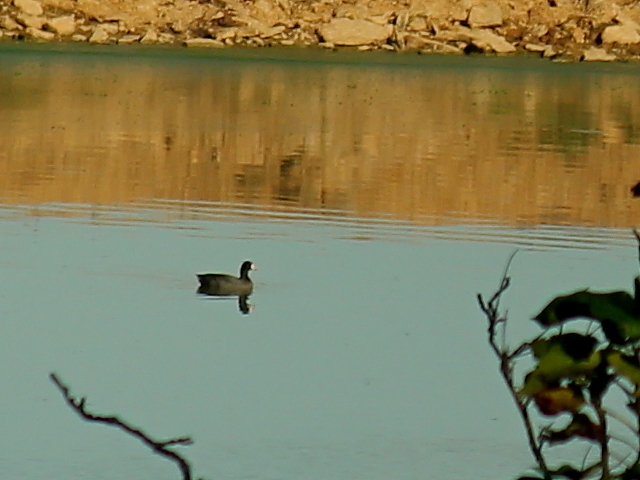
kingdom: Animalia
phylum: Chordata
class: Aves
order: Gruiformes
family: Rallidae
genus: Fulica
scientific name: Fulica americana
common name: American coot
